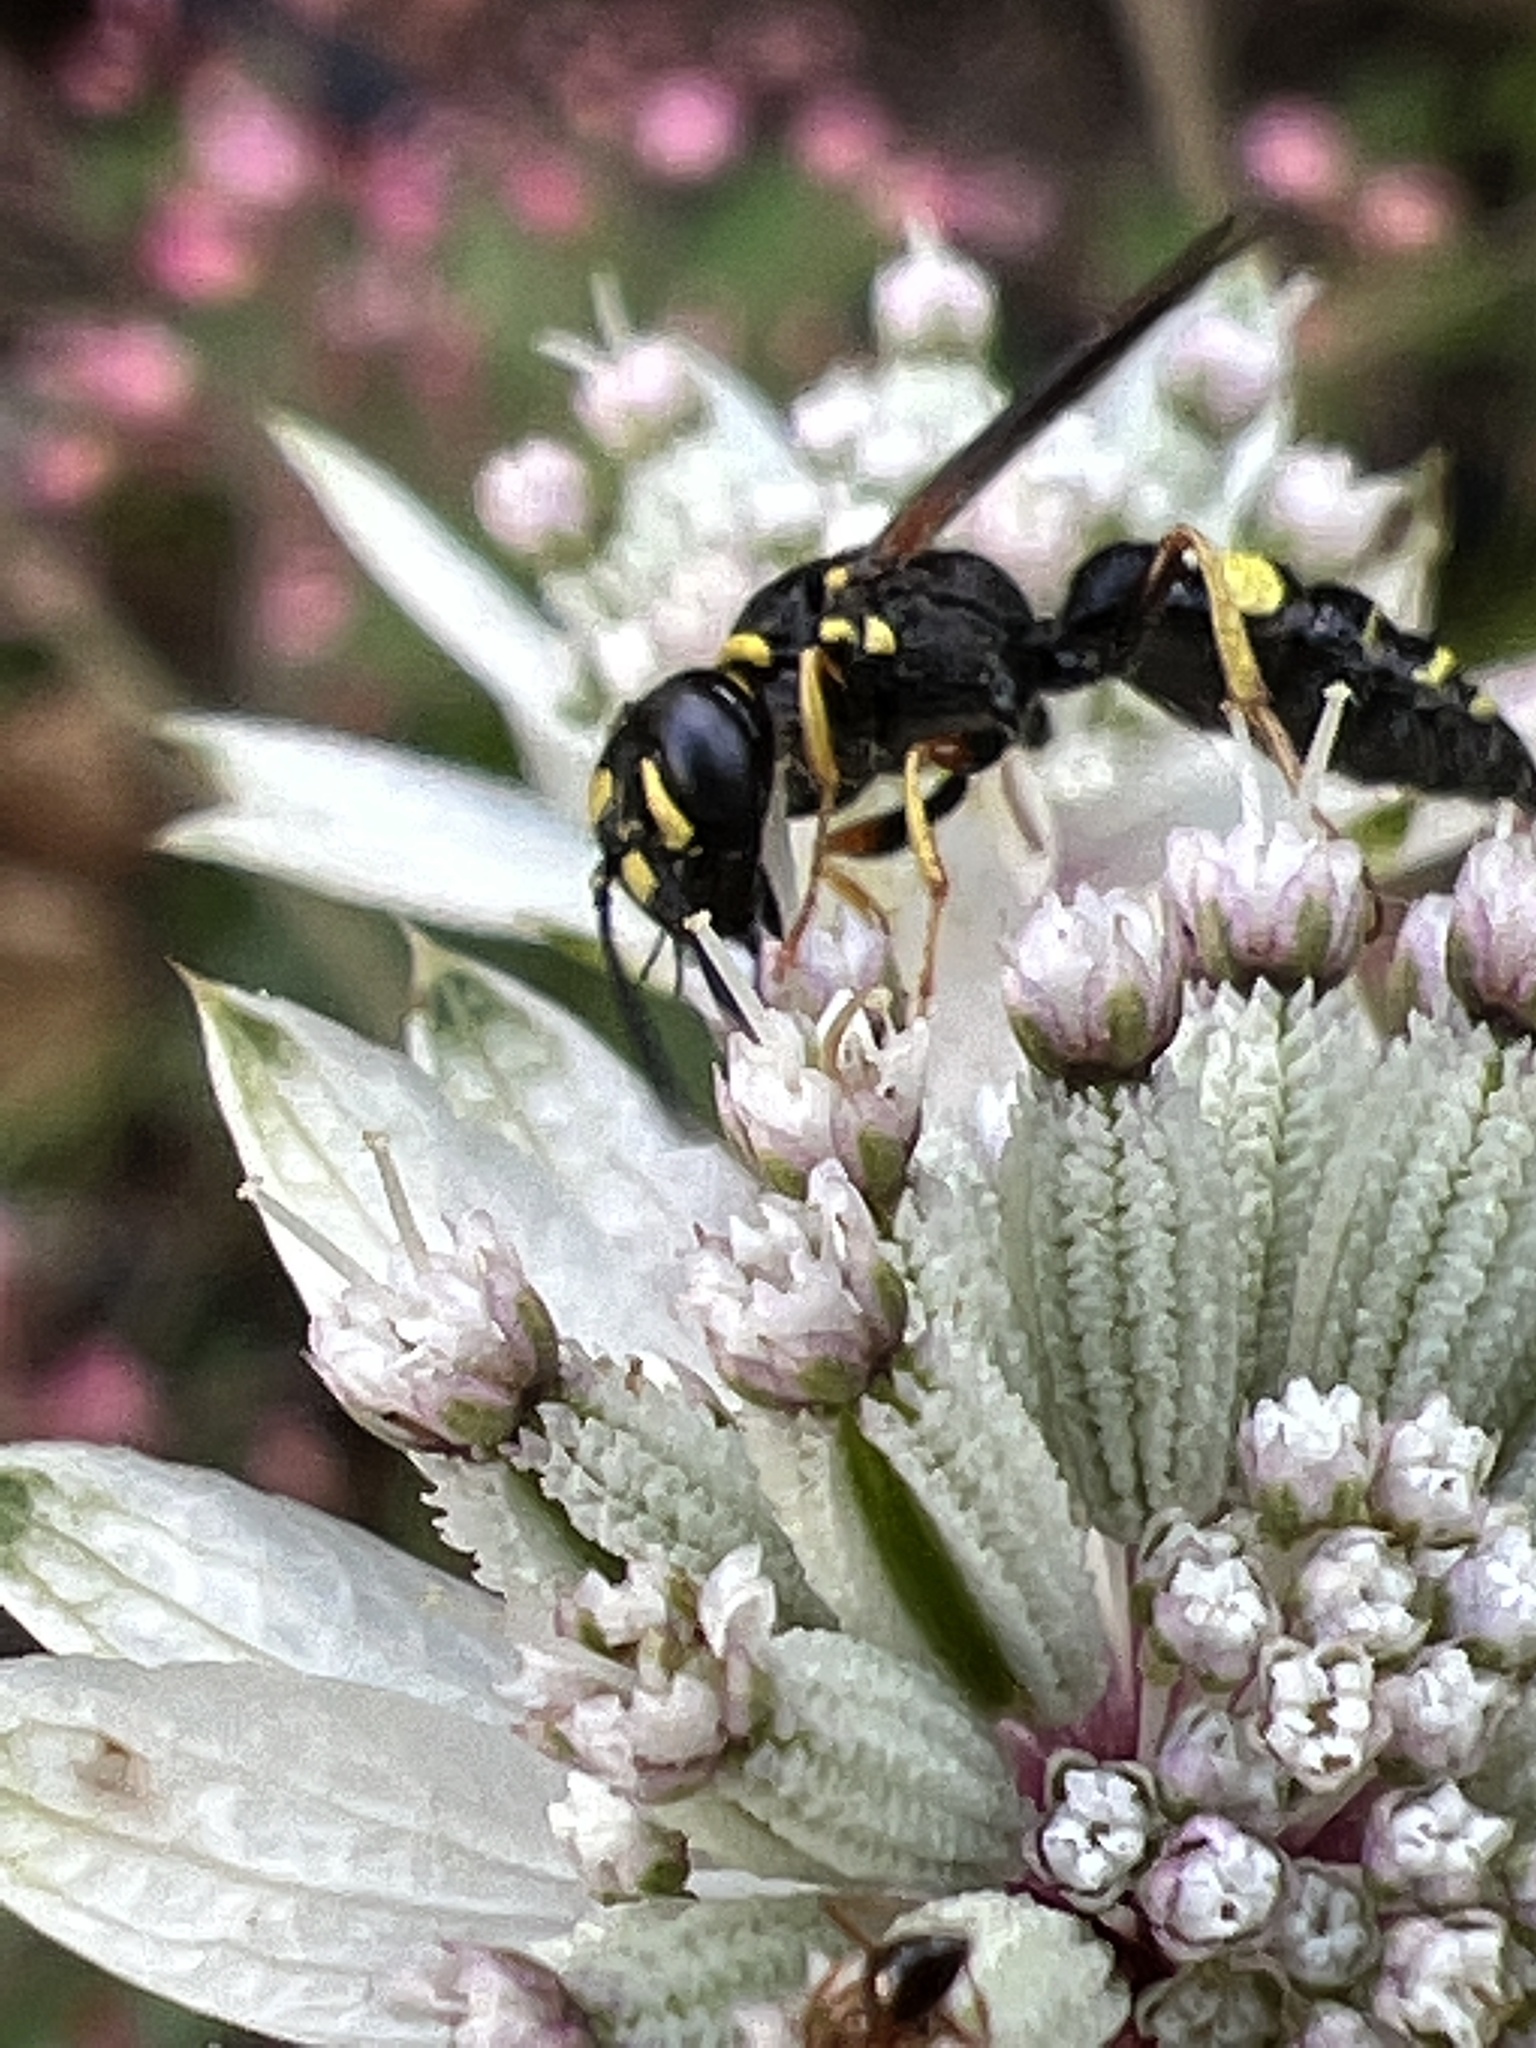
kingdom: Animalia
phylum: Arthropoda
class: Insecta
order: Hymenoptera
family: Crabronidae
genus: Philanthus
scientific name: Philanthus gibbosus
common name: Humped beewolf
